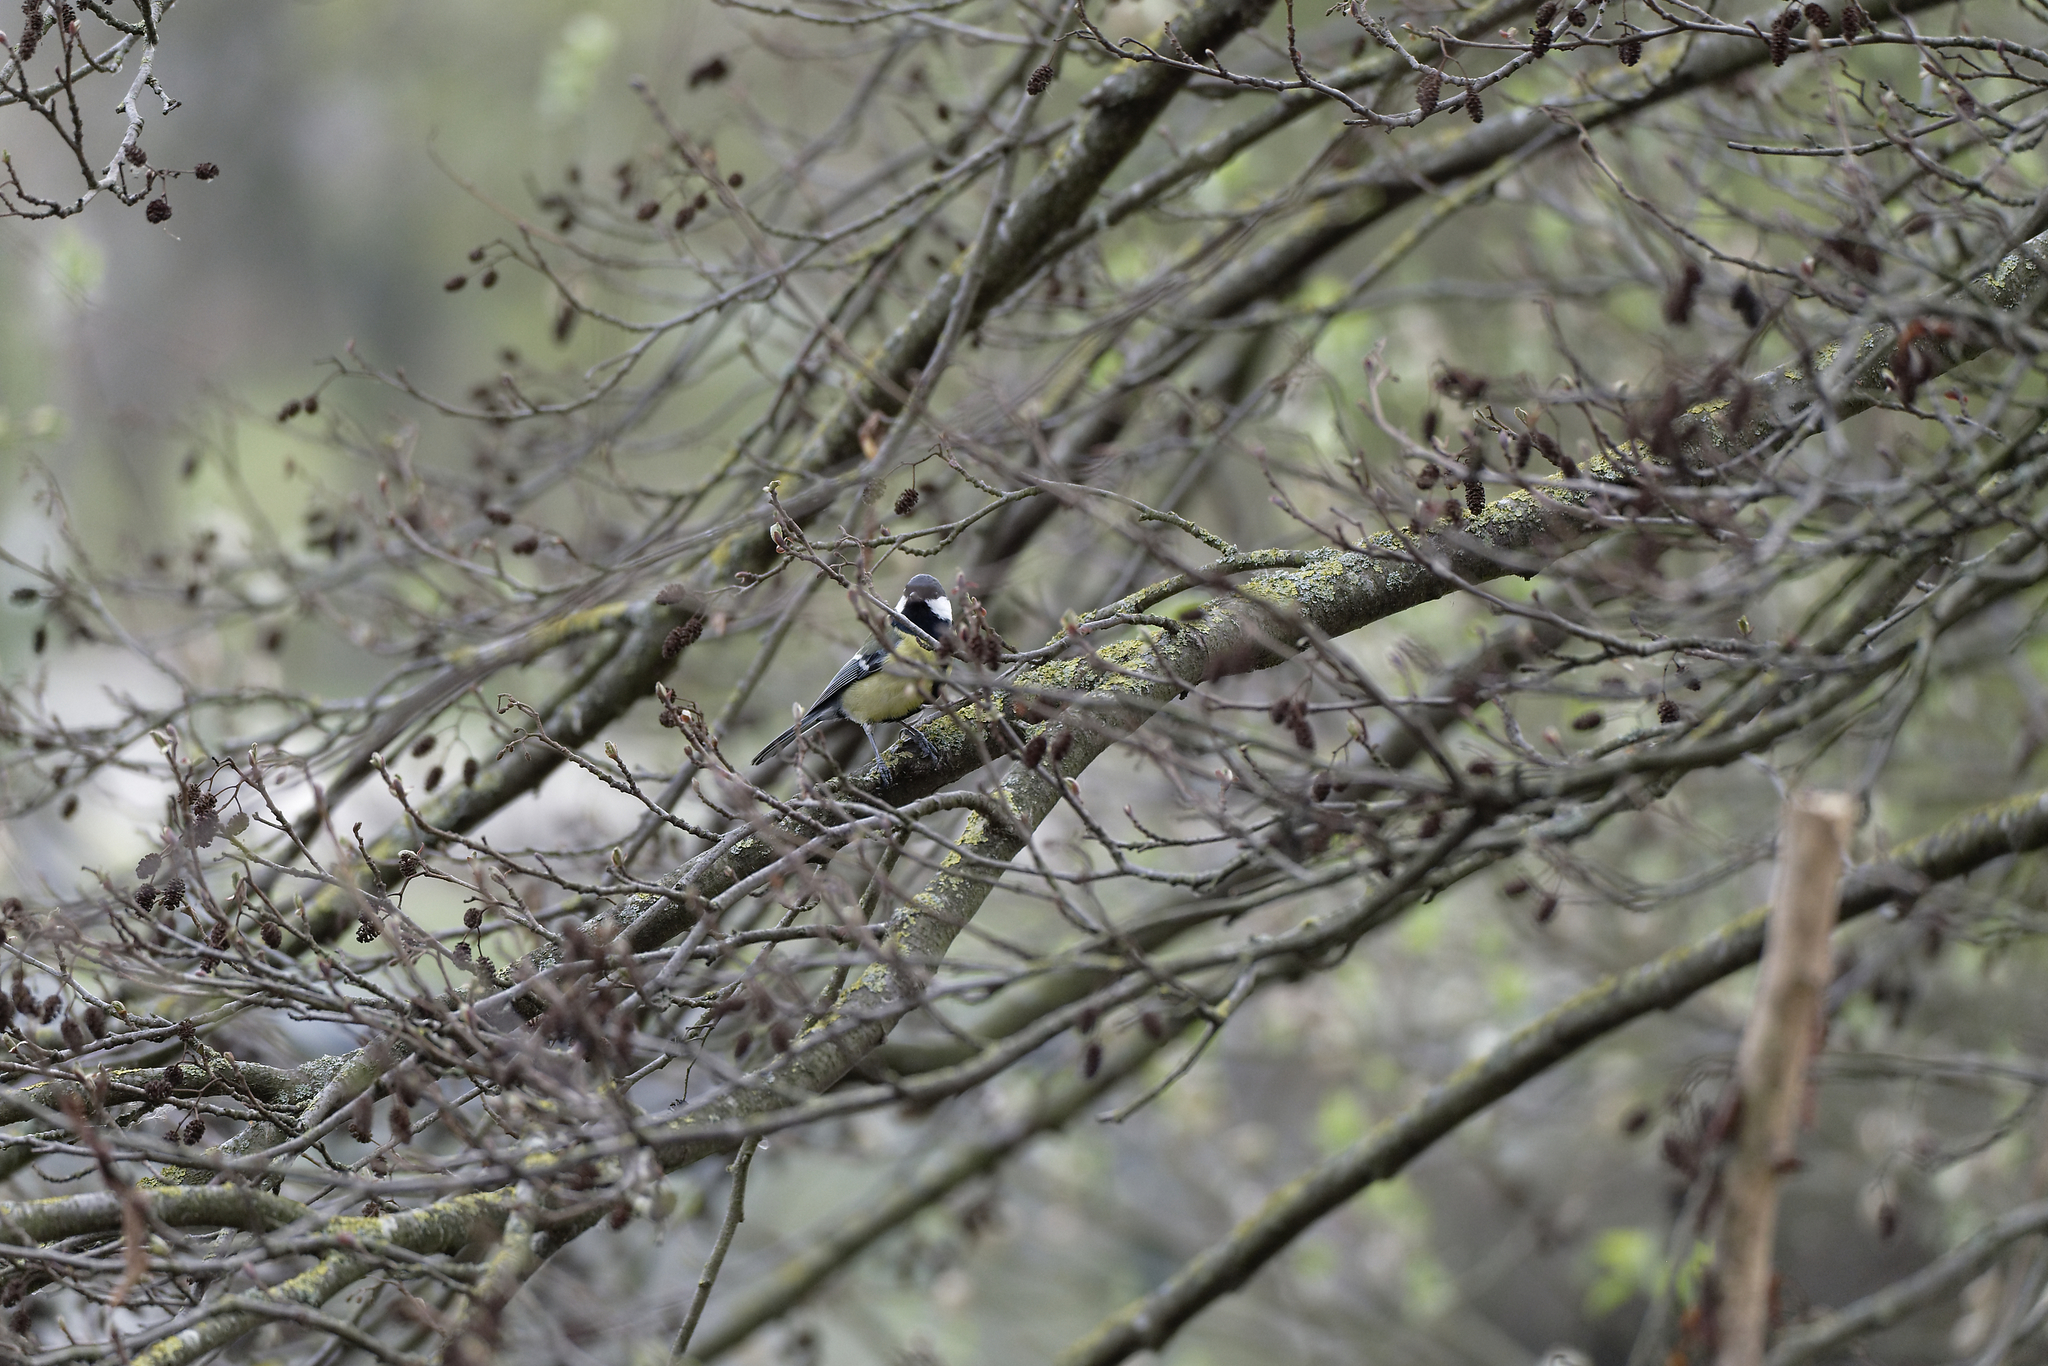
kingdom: Animalia
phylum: Chordata
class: Aves
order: Passeriformes
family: Paridae
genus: Parus
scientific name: Parus major
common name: Great tit
